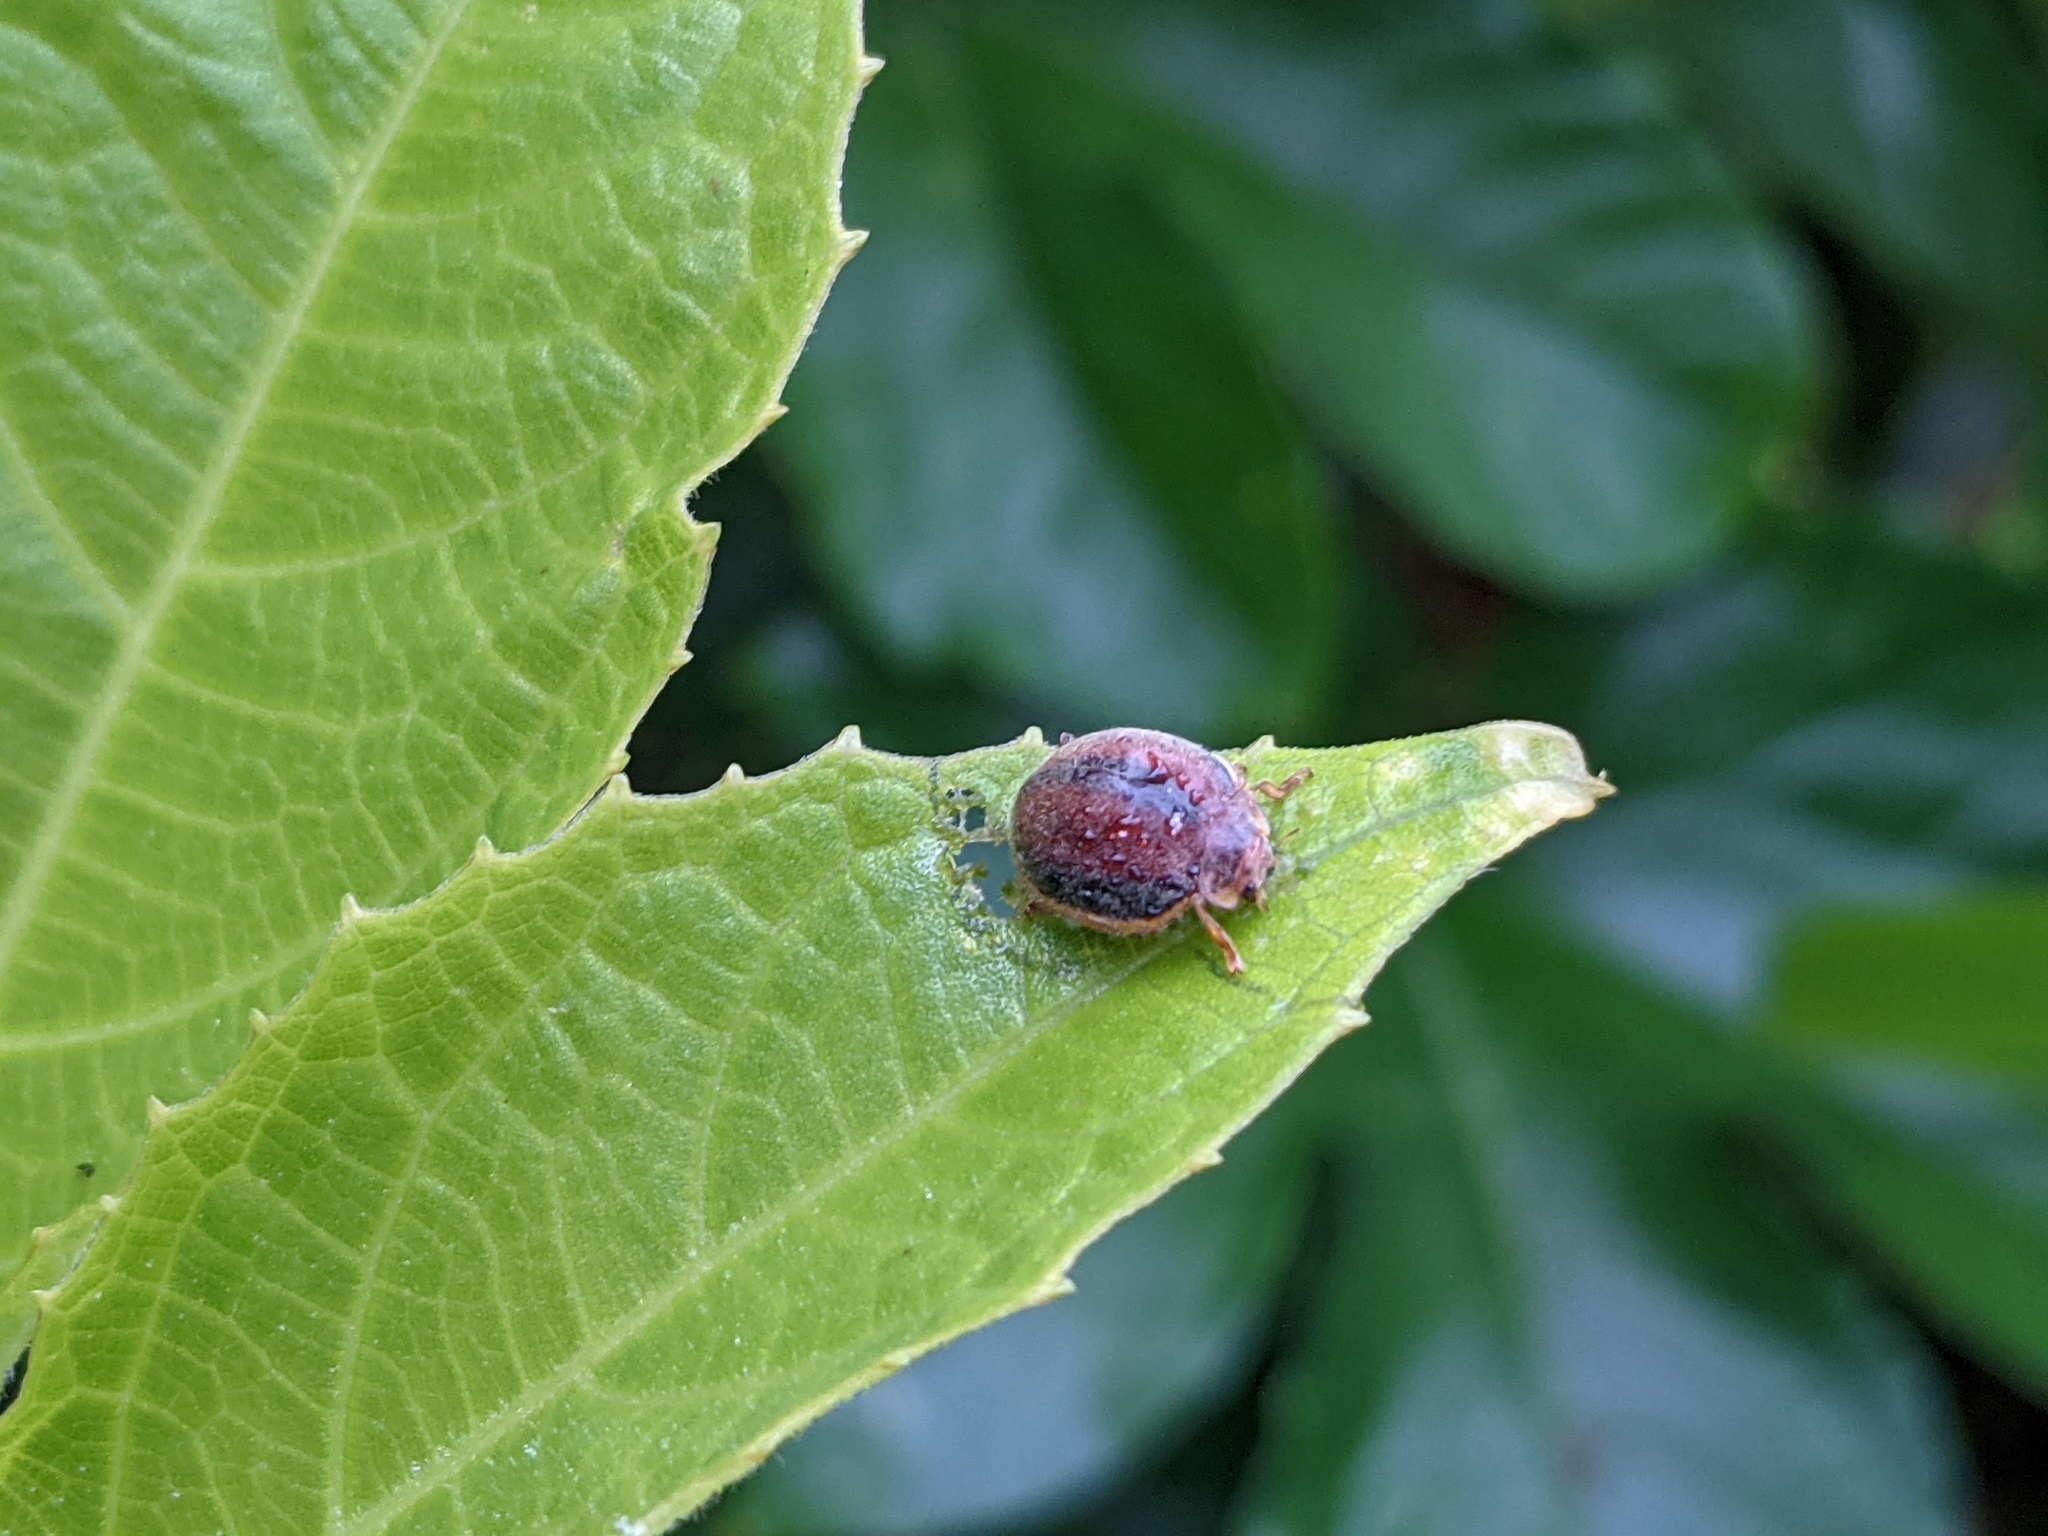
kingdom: Animalia
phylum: Arthropoda
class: Insecta
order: Coleoptera
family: Coccinellidae
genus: Epilachna
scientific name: Epilachna cacica
